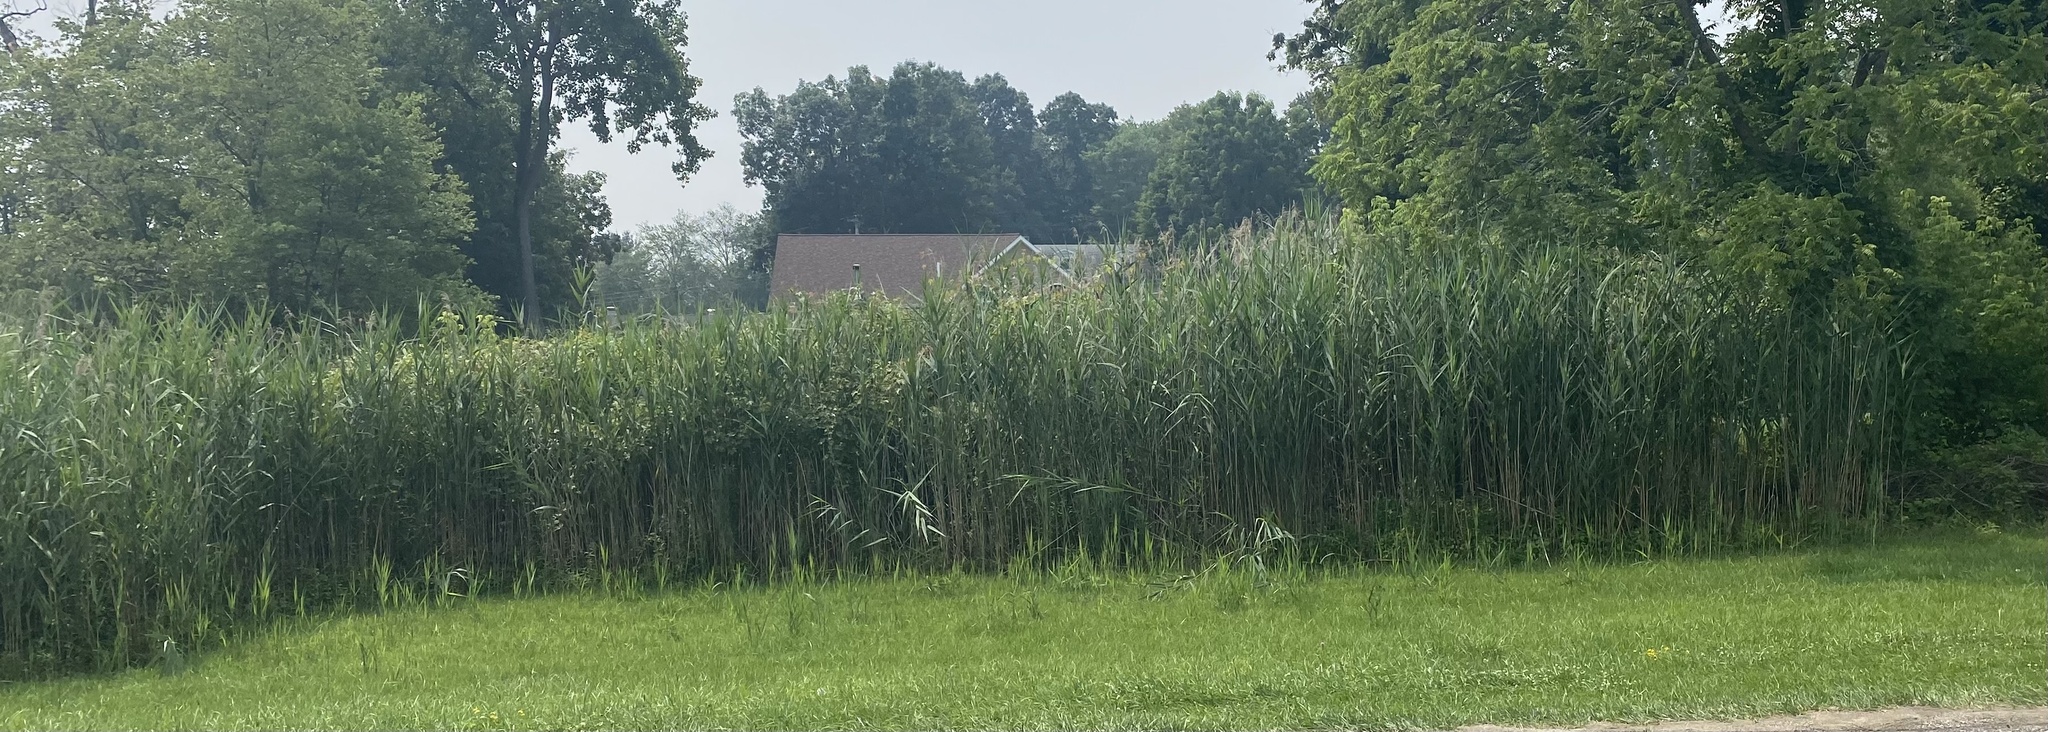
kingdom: Plantae
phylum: Tracheophyta
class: Liliopsida
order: Poales
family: Poaceae
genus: Phragmites
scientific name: Phragmites australis
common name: Common reed
